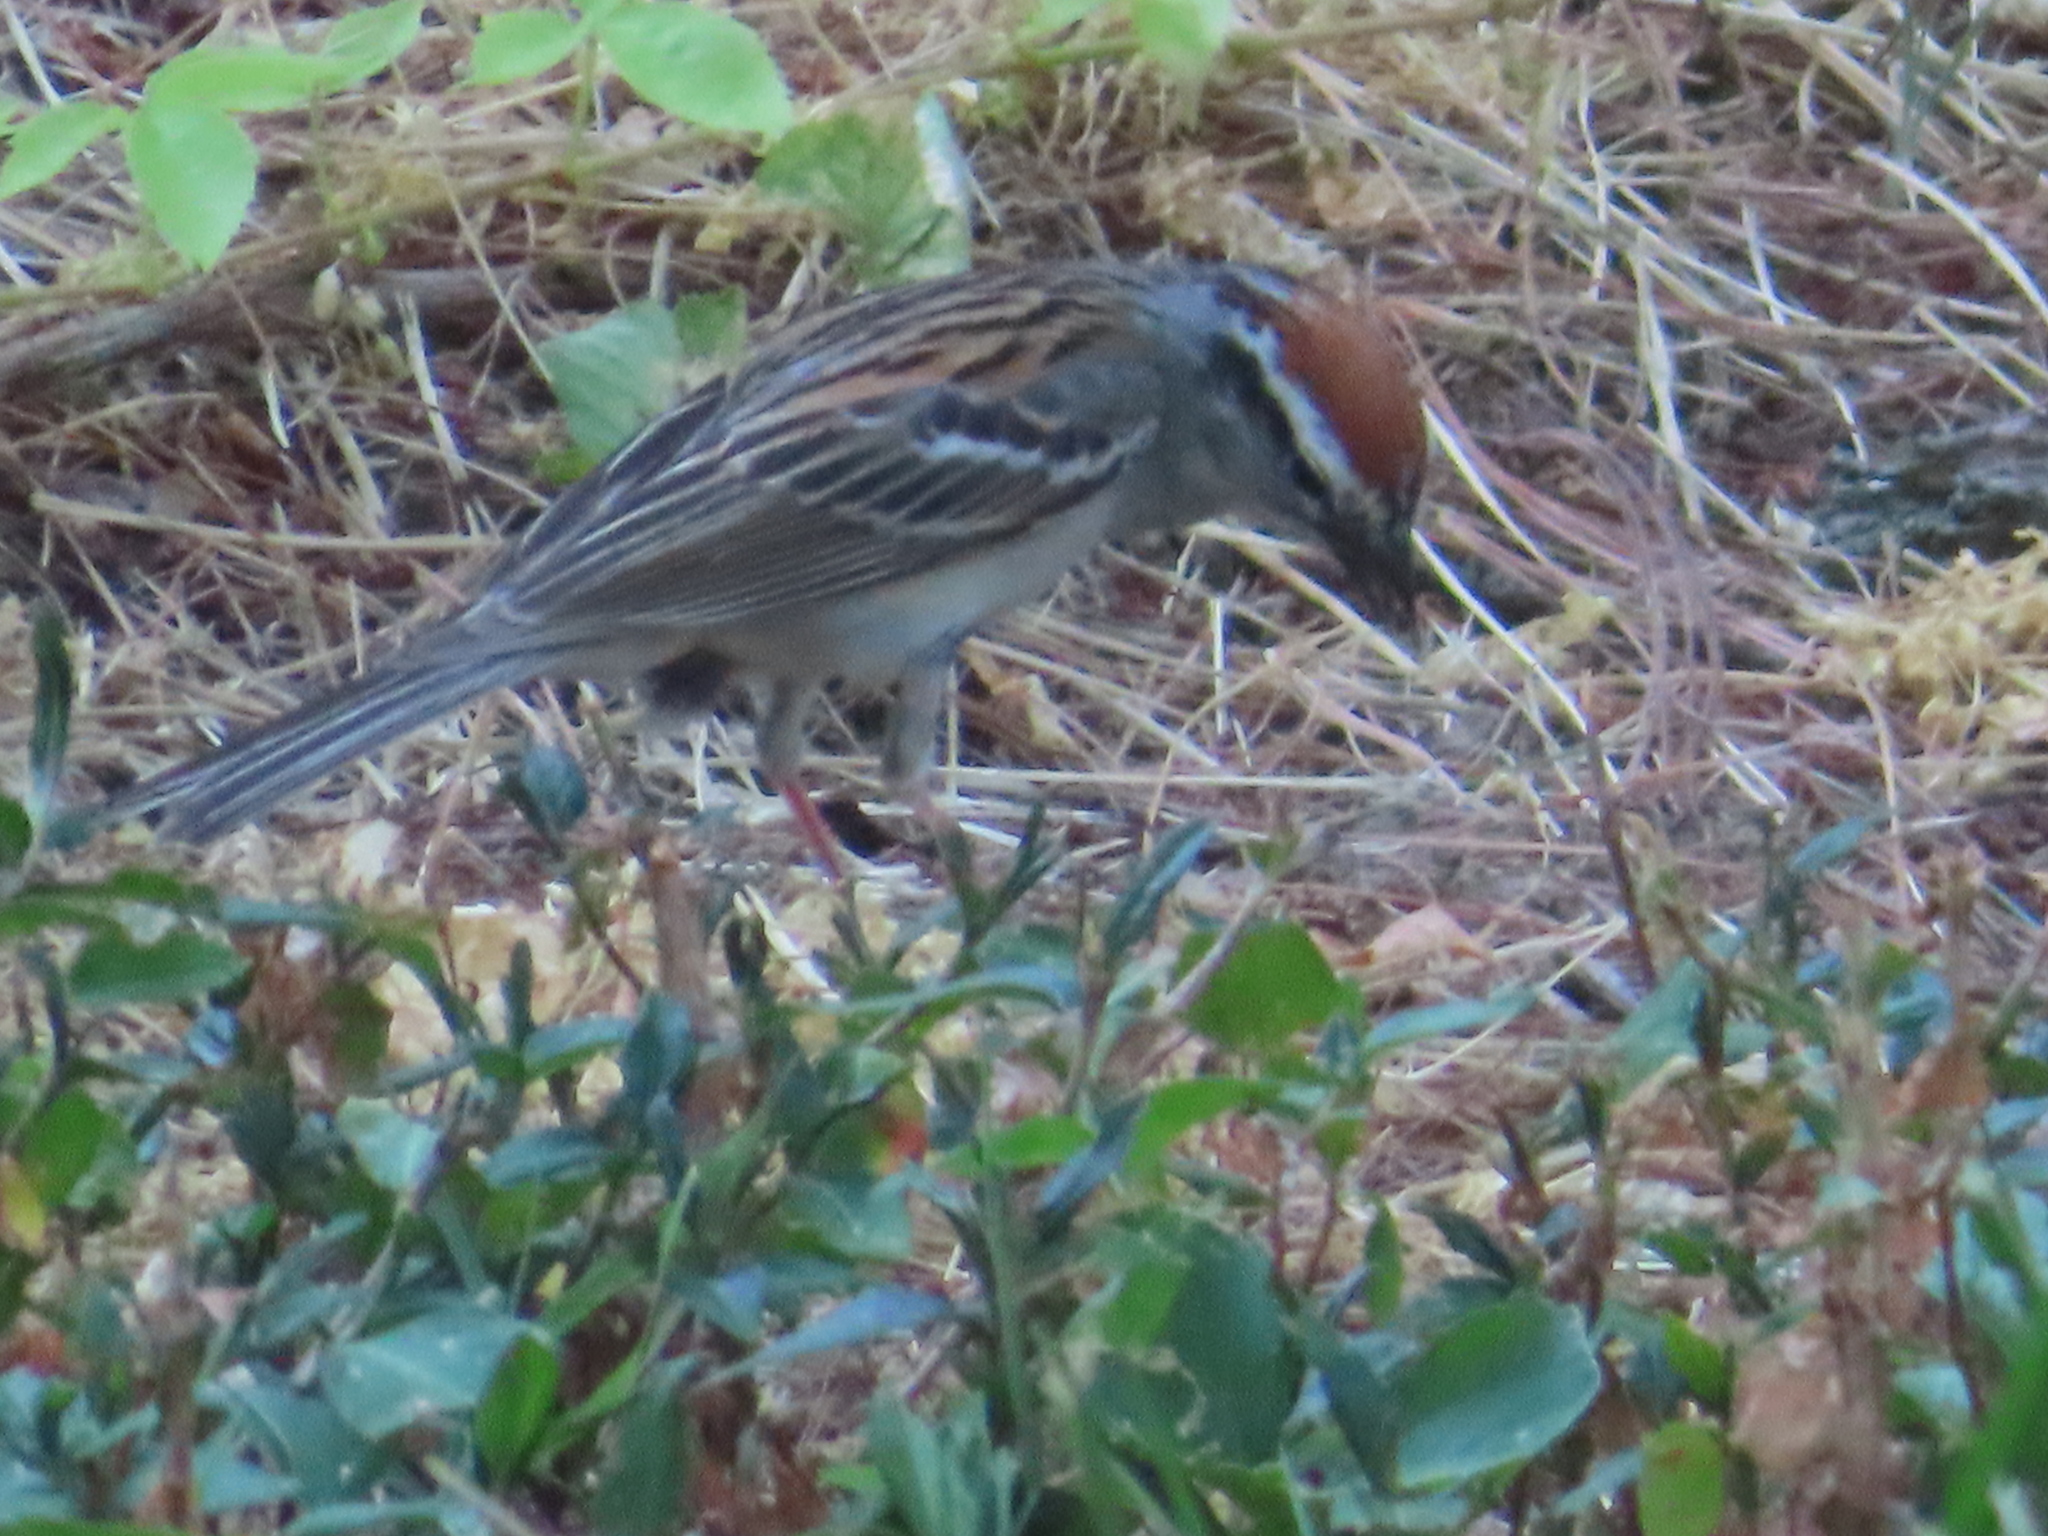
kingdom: Animalia
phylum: Chordata
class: Aves
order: Passeriformes
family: Passerellidae
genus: Spizella
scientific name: Spizella passerina
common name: Chipping sparrow
